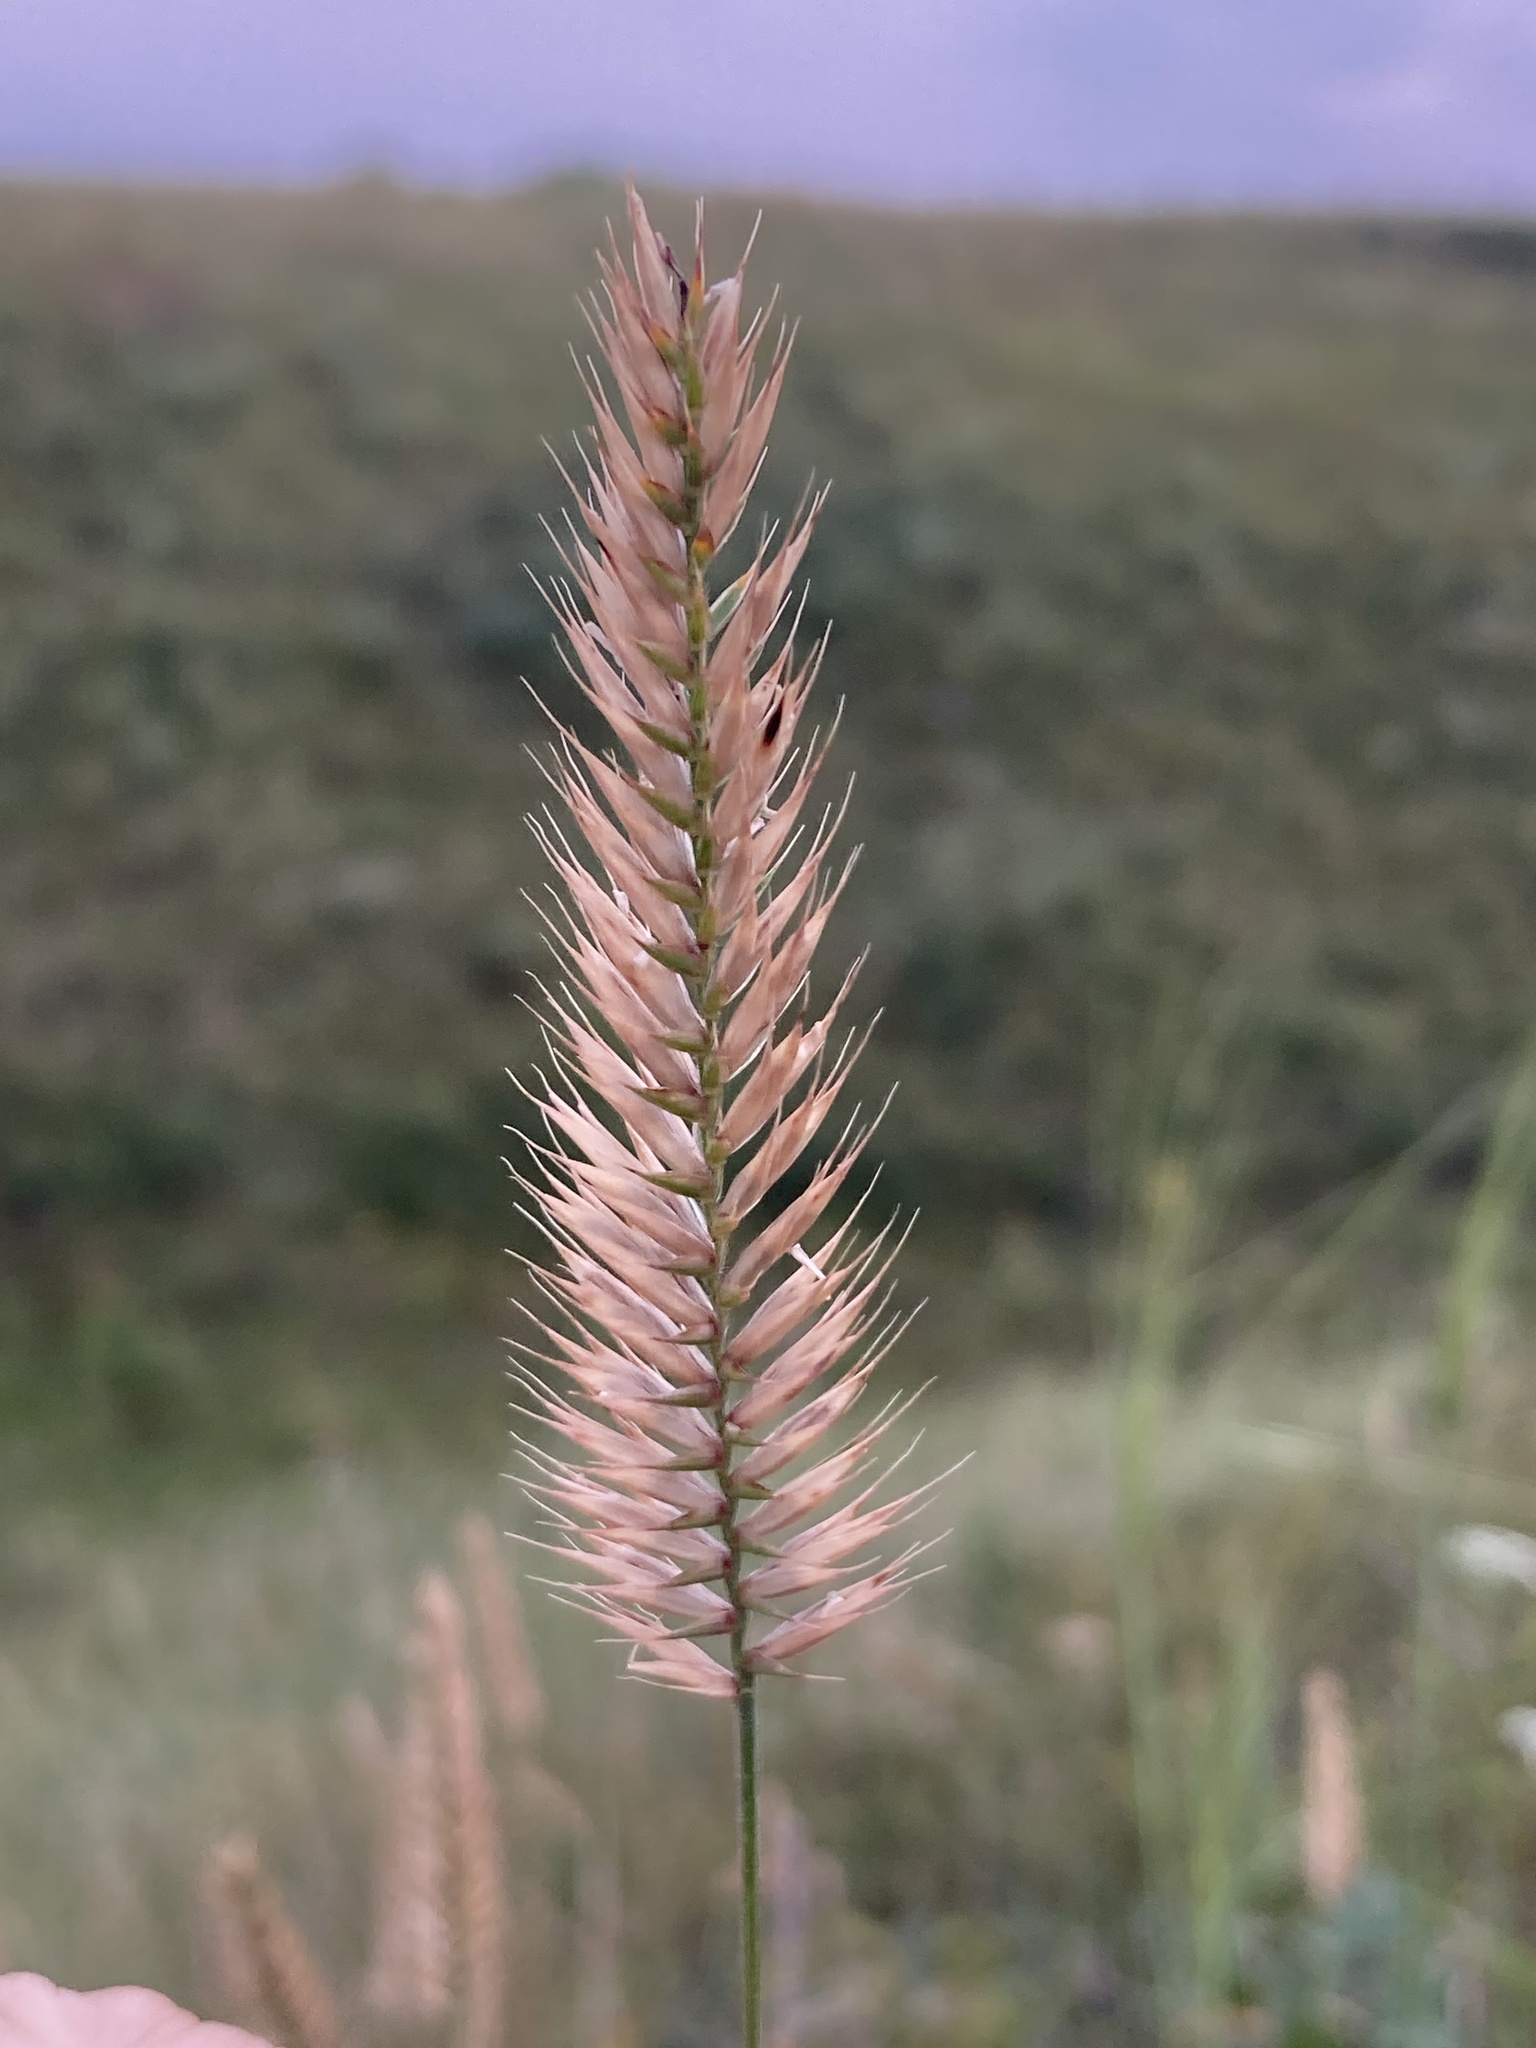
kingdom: Plantae
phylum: Tracheophyta
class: Liliopsida
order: Poales
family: Poaceae
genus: Agropyron
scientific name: Agropyron cristatum
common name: Crested wheatgrass
